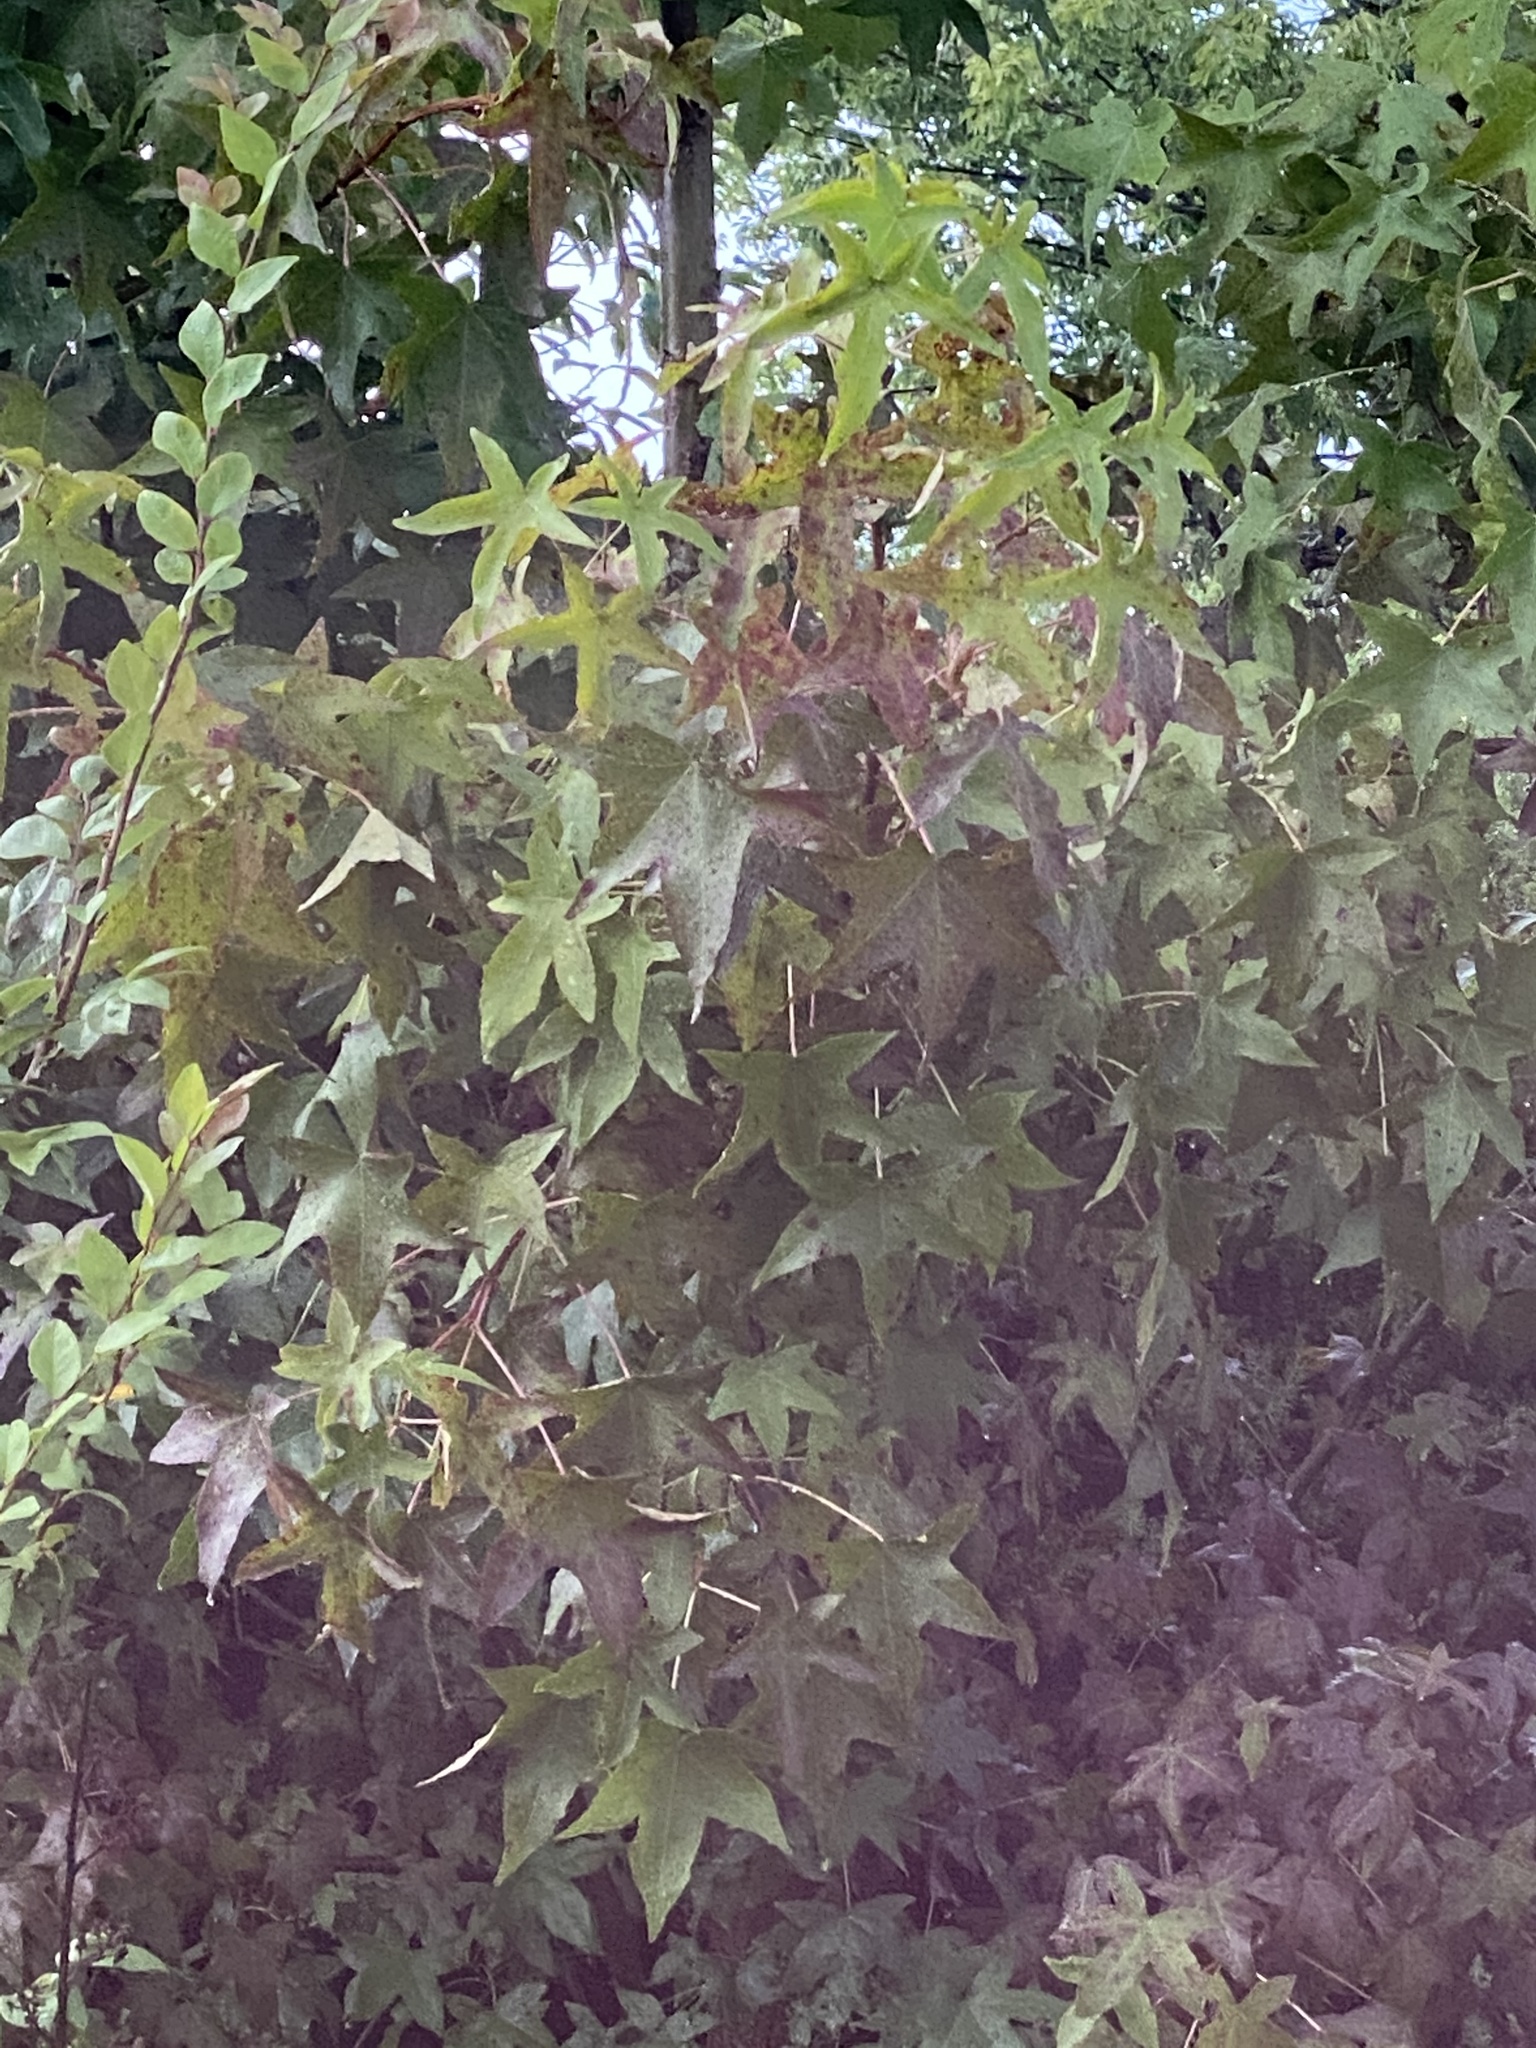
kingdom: Plantae
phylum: Tracheophyta
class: Magnoliopsida
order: Saxifragales
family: Altingiaceae
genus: Liquidambar
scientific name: Liquidambar styraciflua
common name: Sweet gum
